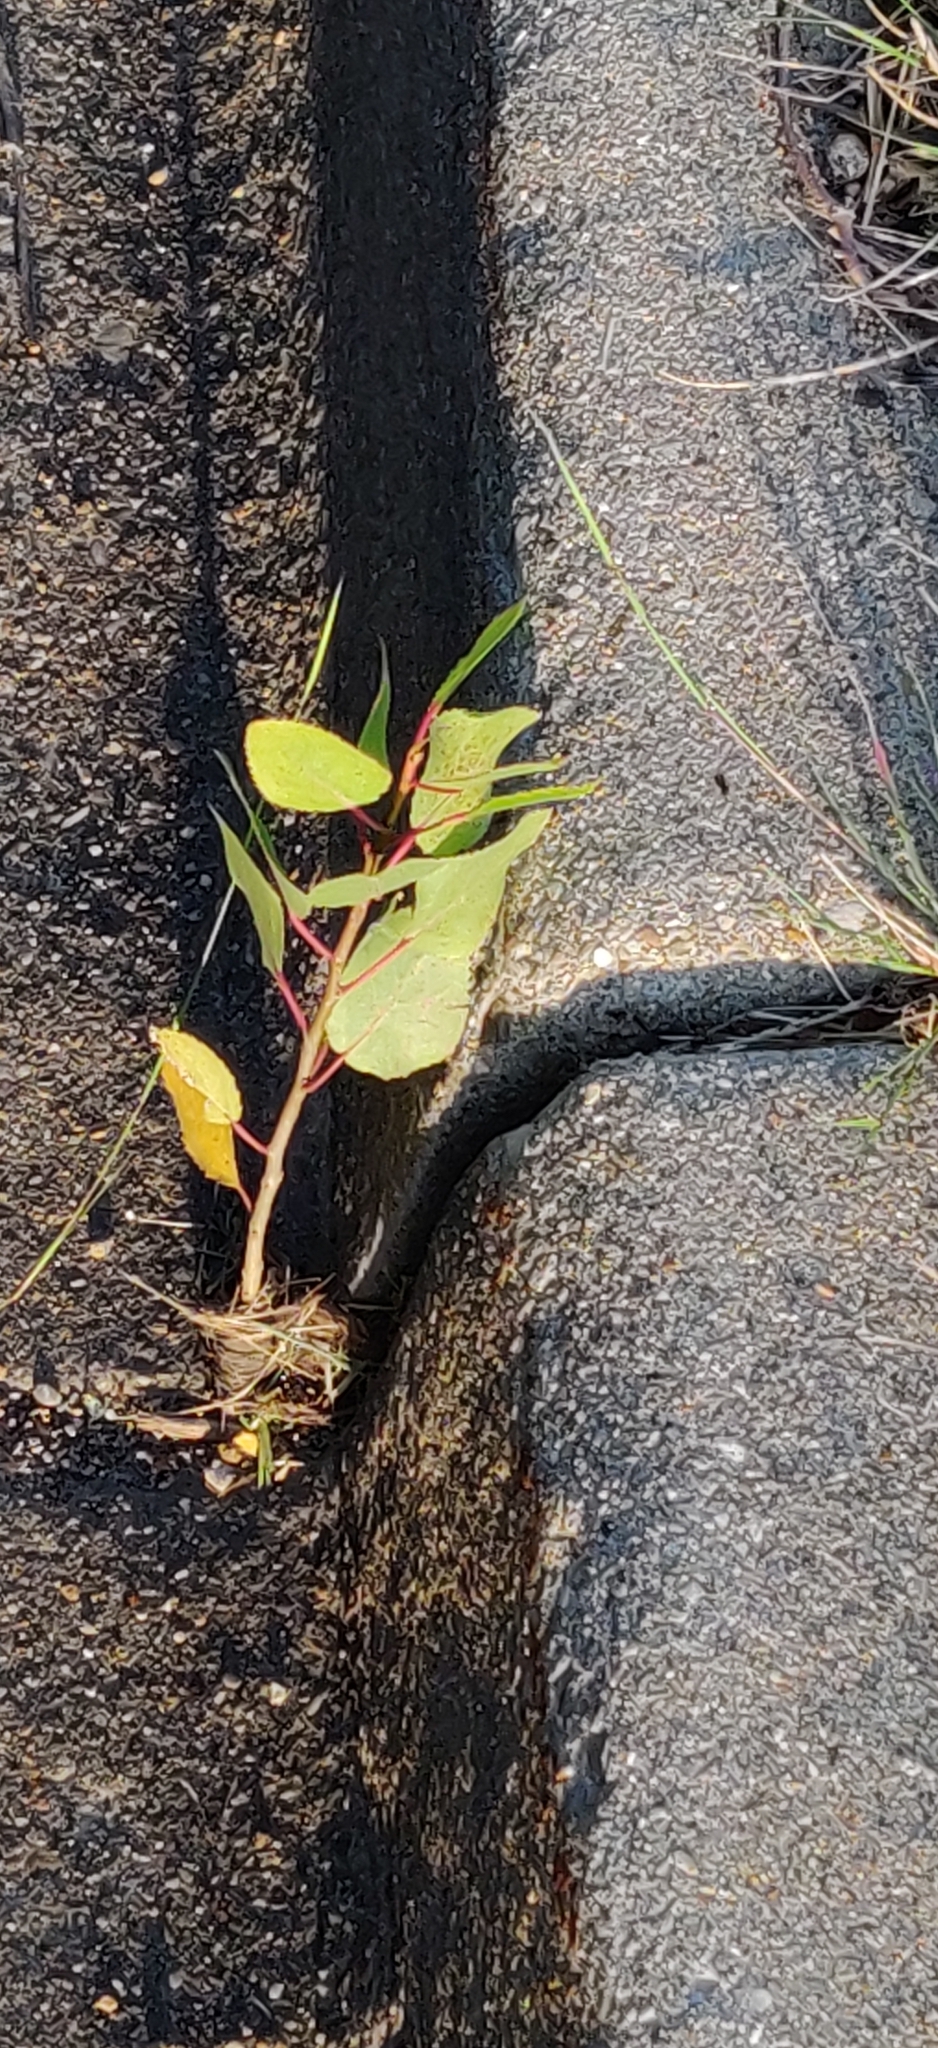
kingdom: Plantae
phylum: Tracheophyta
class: Magnoliopsida
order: Malpighiales
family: Salicaceae
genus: Populus
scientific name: Populus deltoides
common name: Eastern cottonwood
